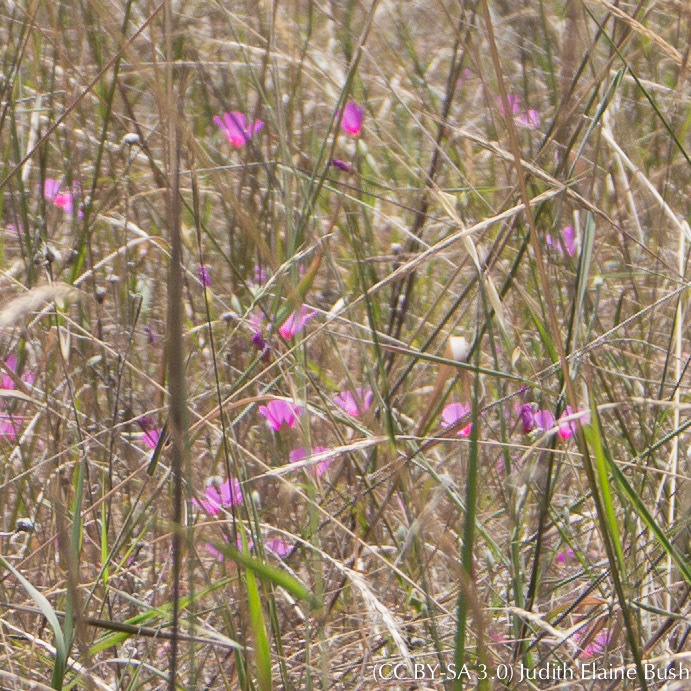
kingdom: Plantae
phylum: Tracheophyta
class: Magnoliopsida
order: Myrtales
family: Onagraceae
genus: Clarkia
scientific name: Clarkia rubicunda
